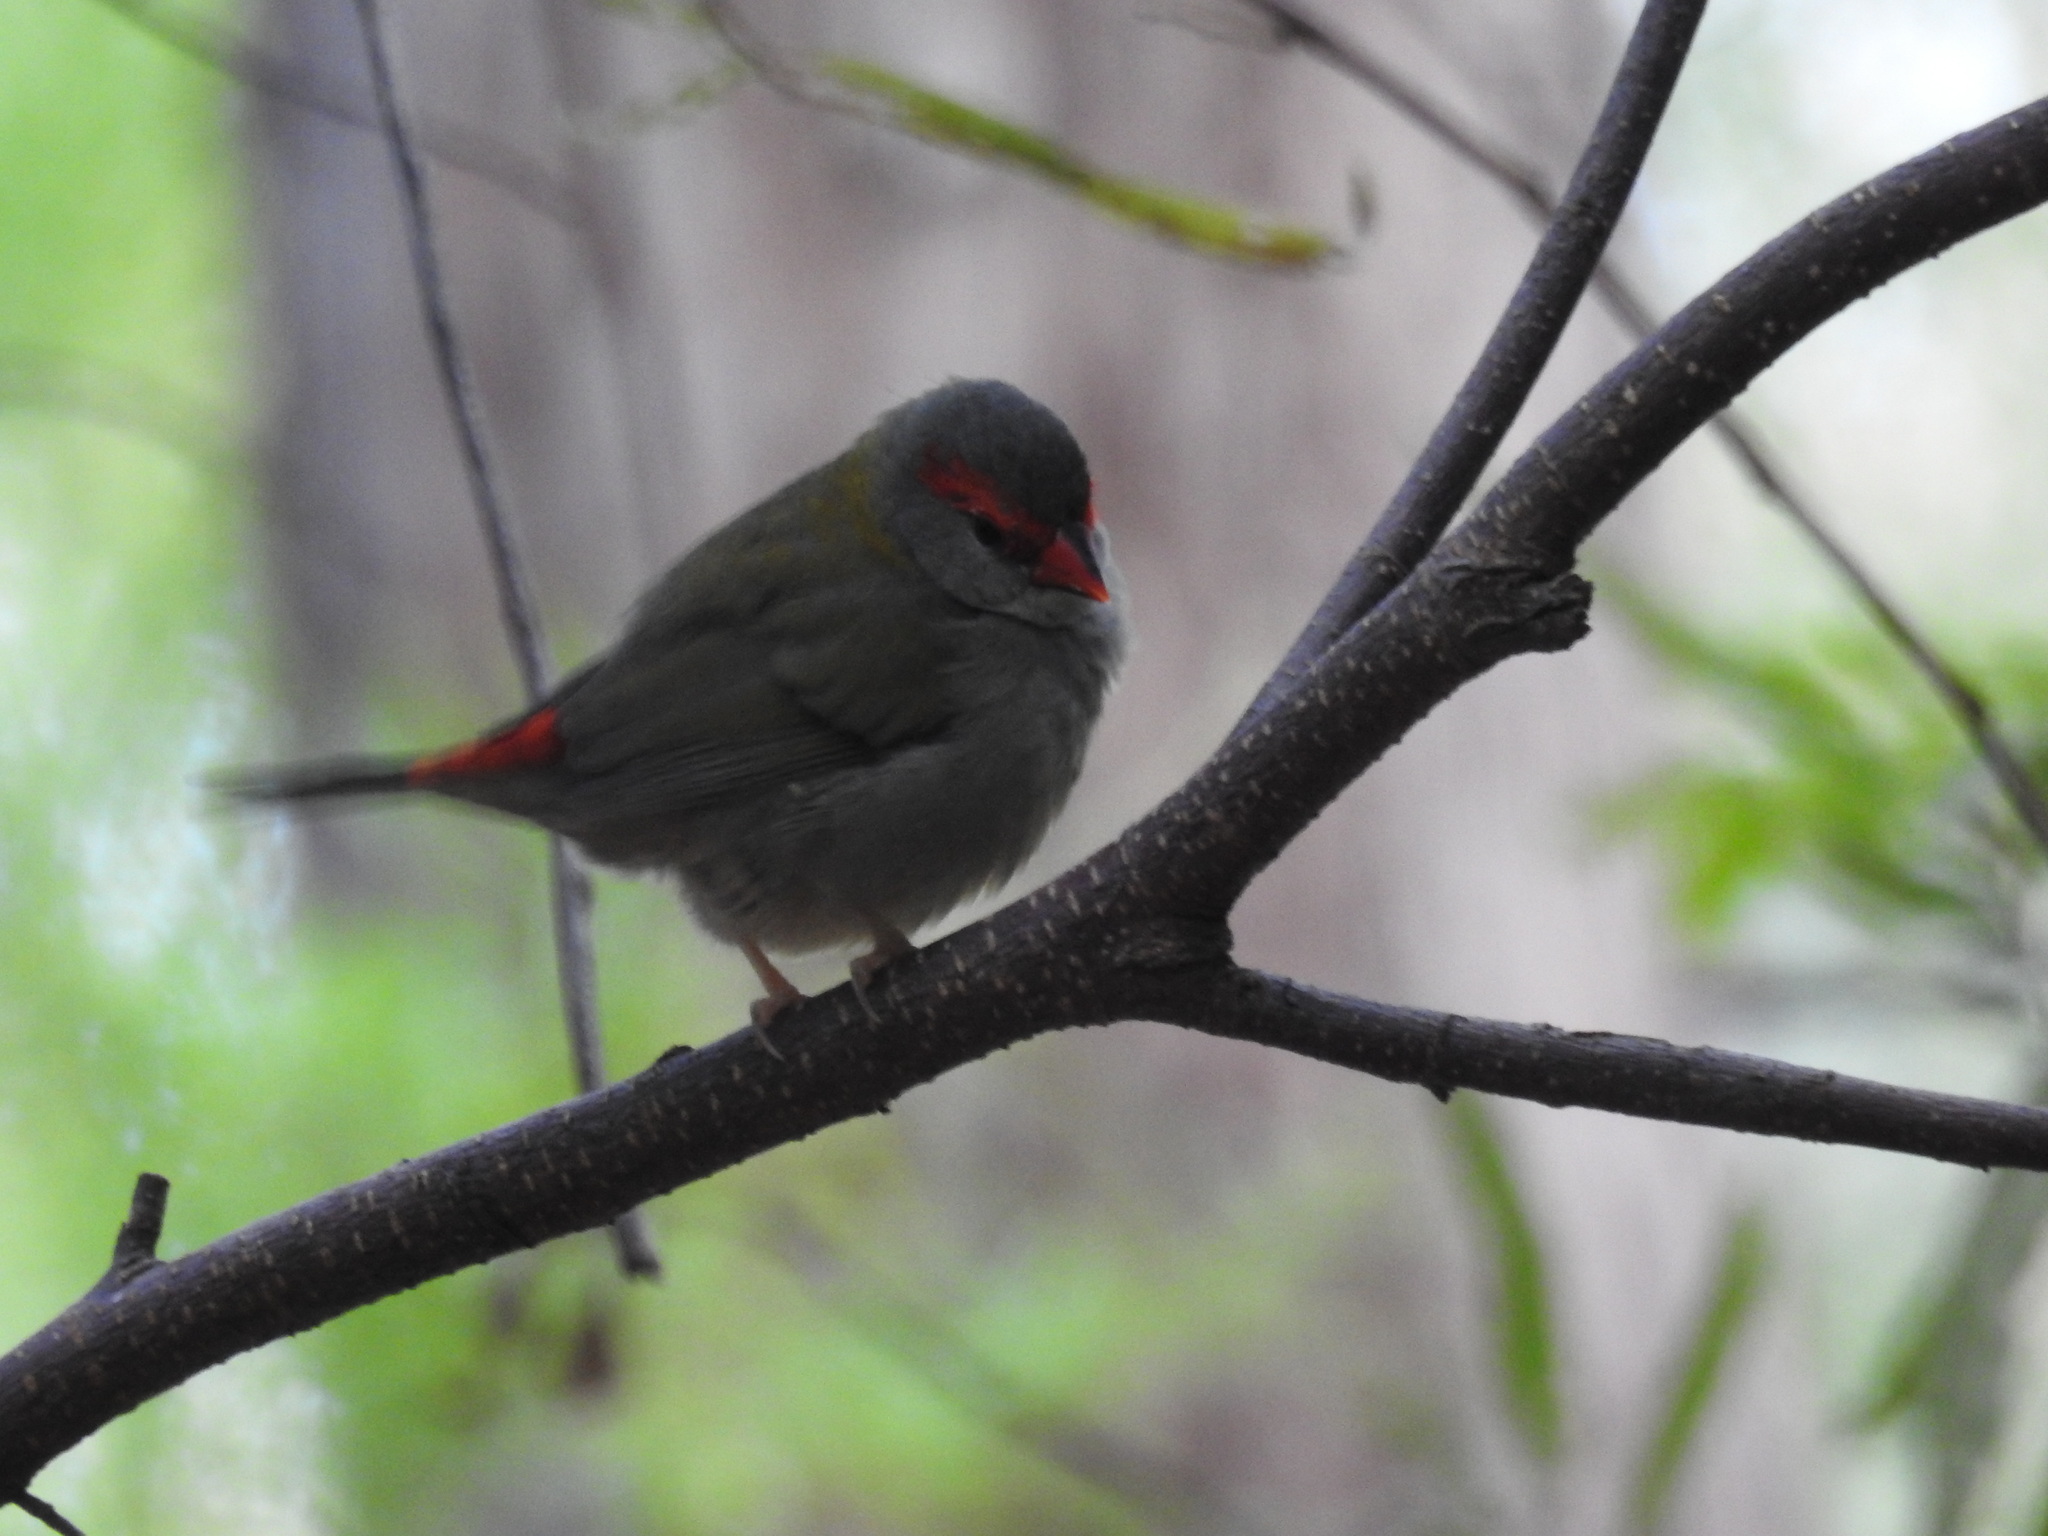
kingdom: Animalia
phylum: Chordata
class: Aves
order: Passeriformes
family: Estrildidae
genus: Neochmia
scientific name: Neochmia temporalis
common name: Red-browed finch
